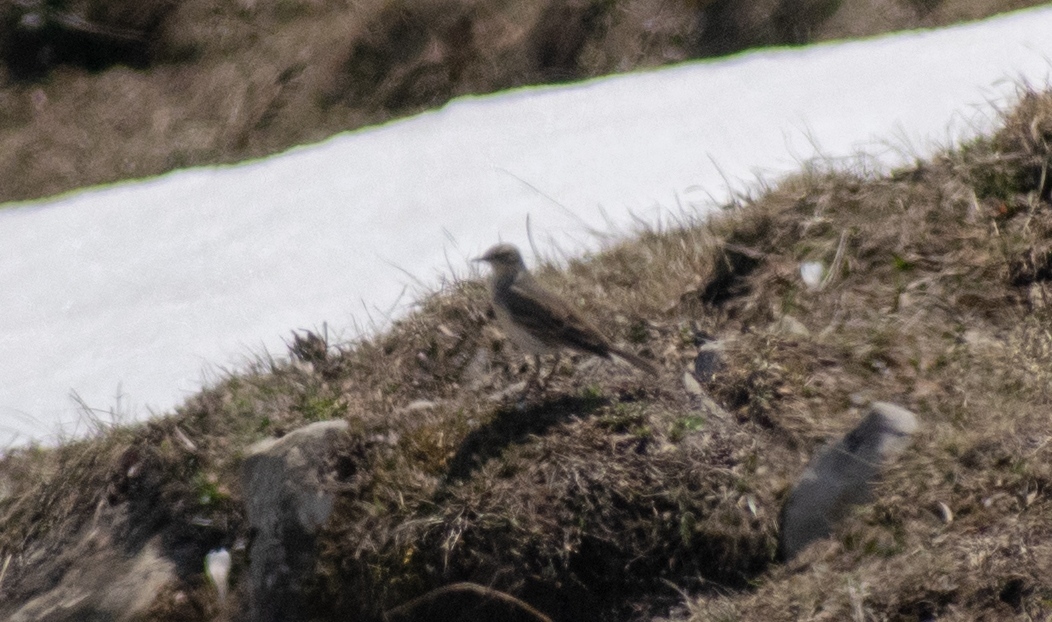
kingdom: Animalia
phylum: Chordata
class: Aves
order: Passeriformes
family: Motacillidae
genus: Anthus
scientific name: Anthus spinoletta
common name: Water pipit
